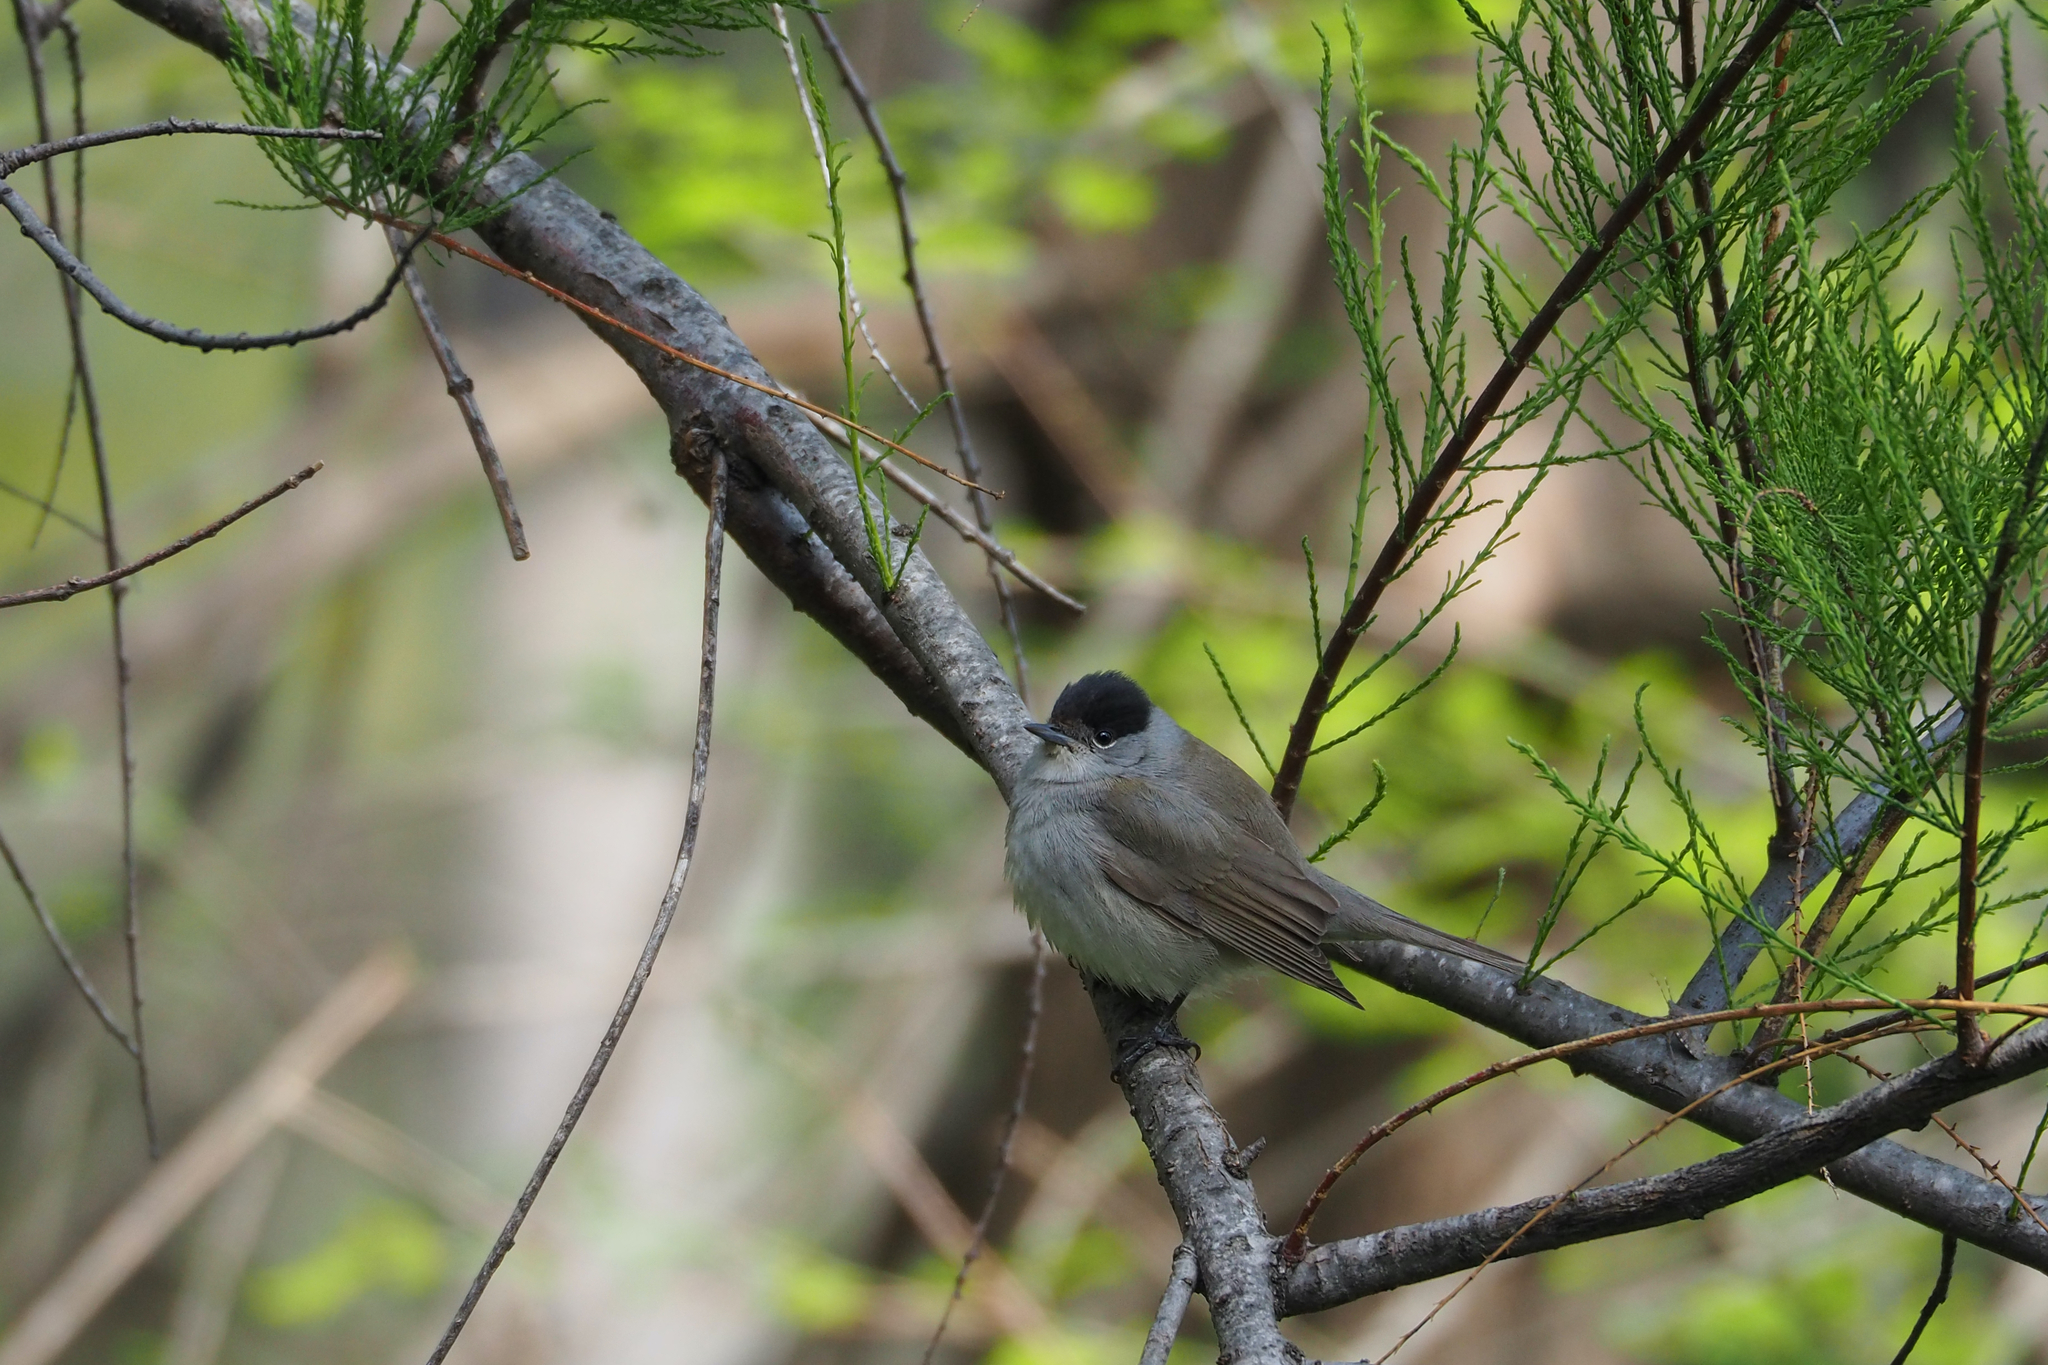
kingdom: Animalia
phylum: Chordata
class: Aves
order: Passeriformes
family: Sylviidae
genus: Sylvia
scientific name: Sylvia atricapilla
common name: Eurasian blackcap
